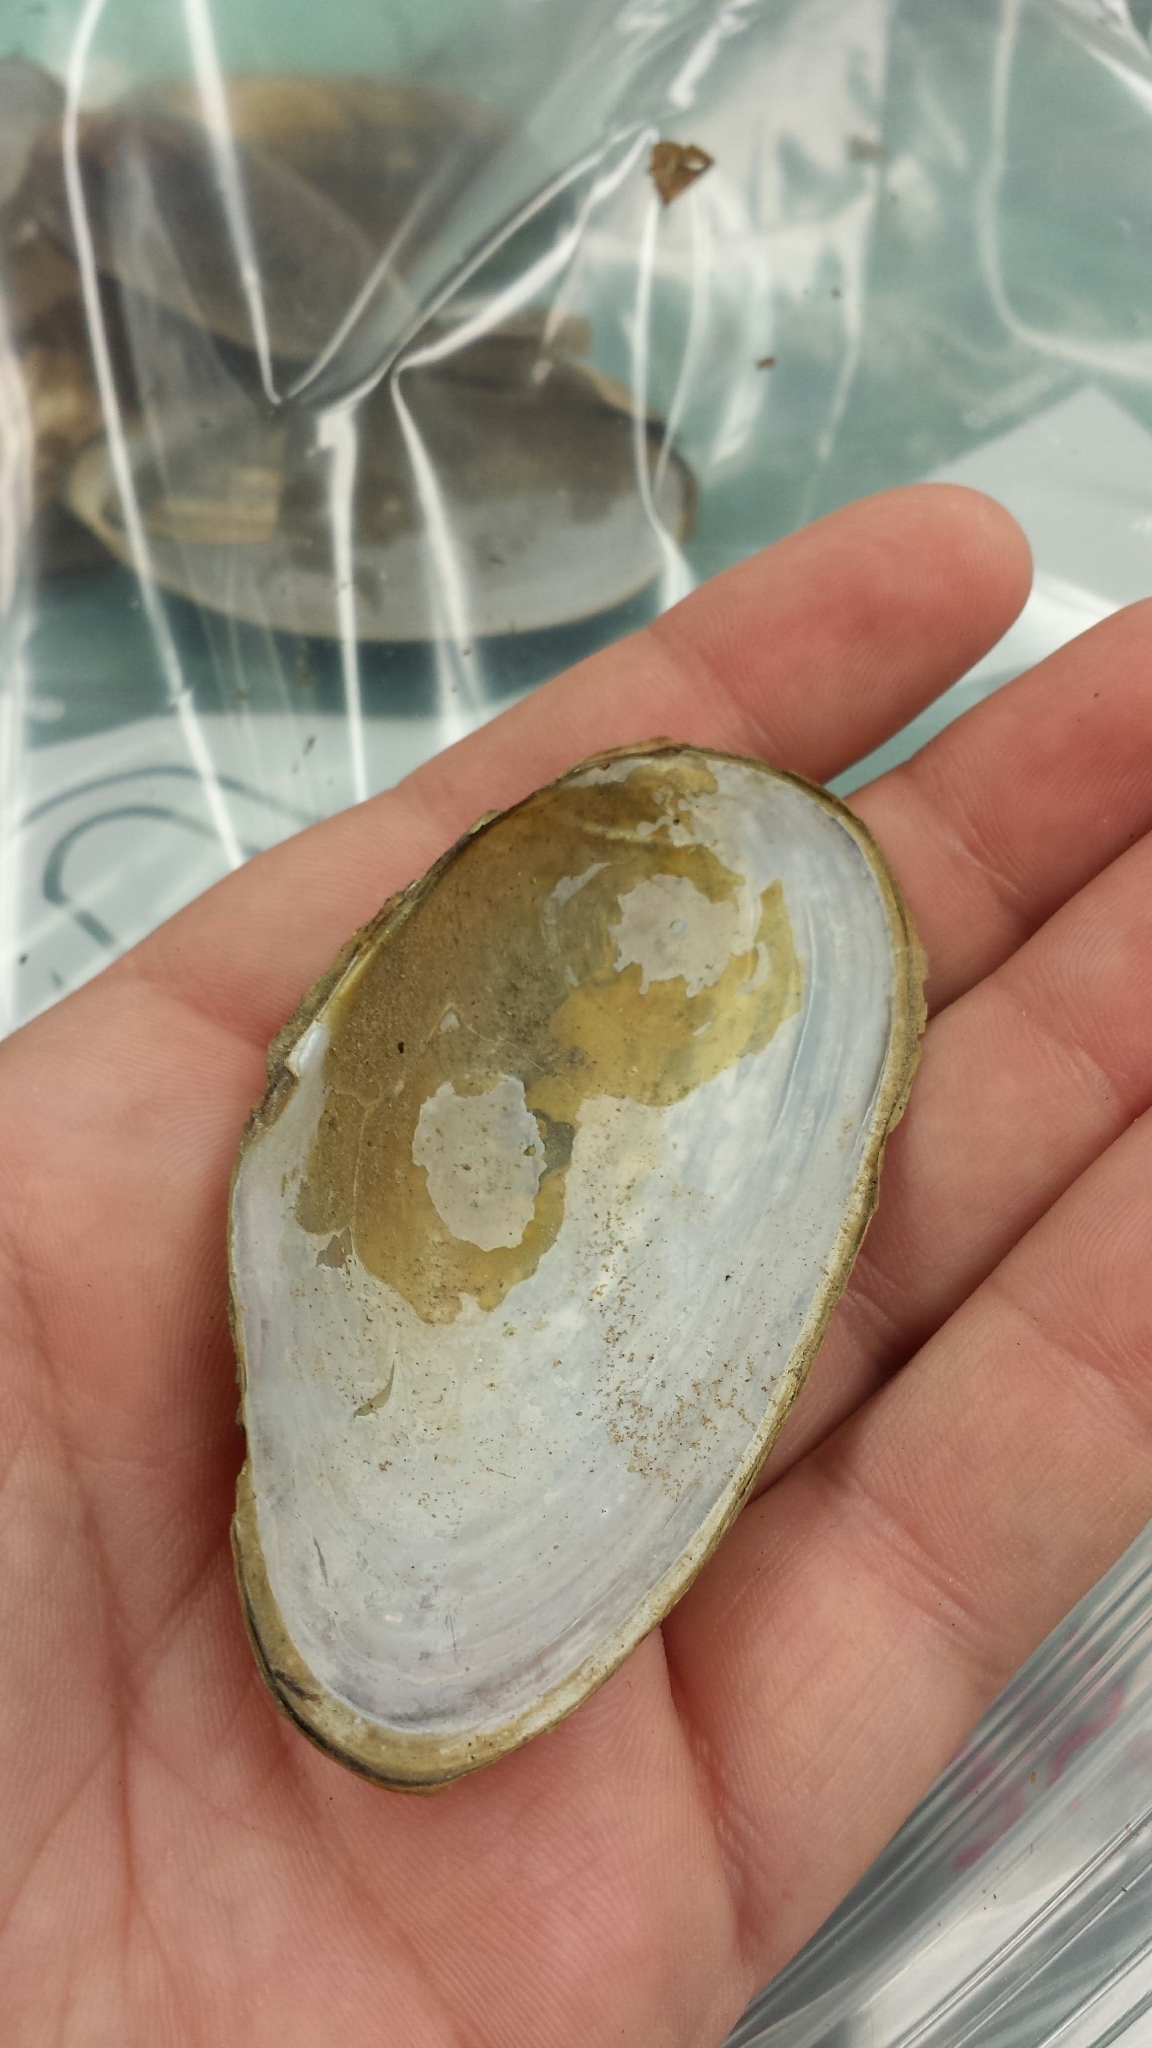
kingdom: Animalia
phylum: Mollusca
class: Bivalvia
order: Unionida
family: Unionidae
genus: Pyganodon
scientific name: Pyganodon cataracta
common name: Eastern floater
